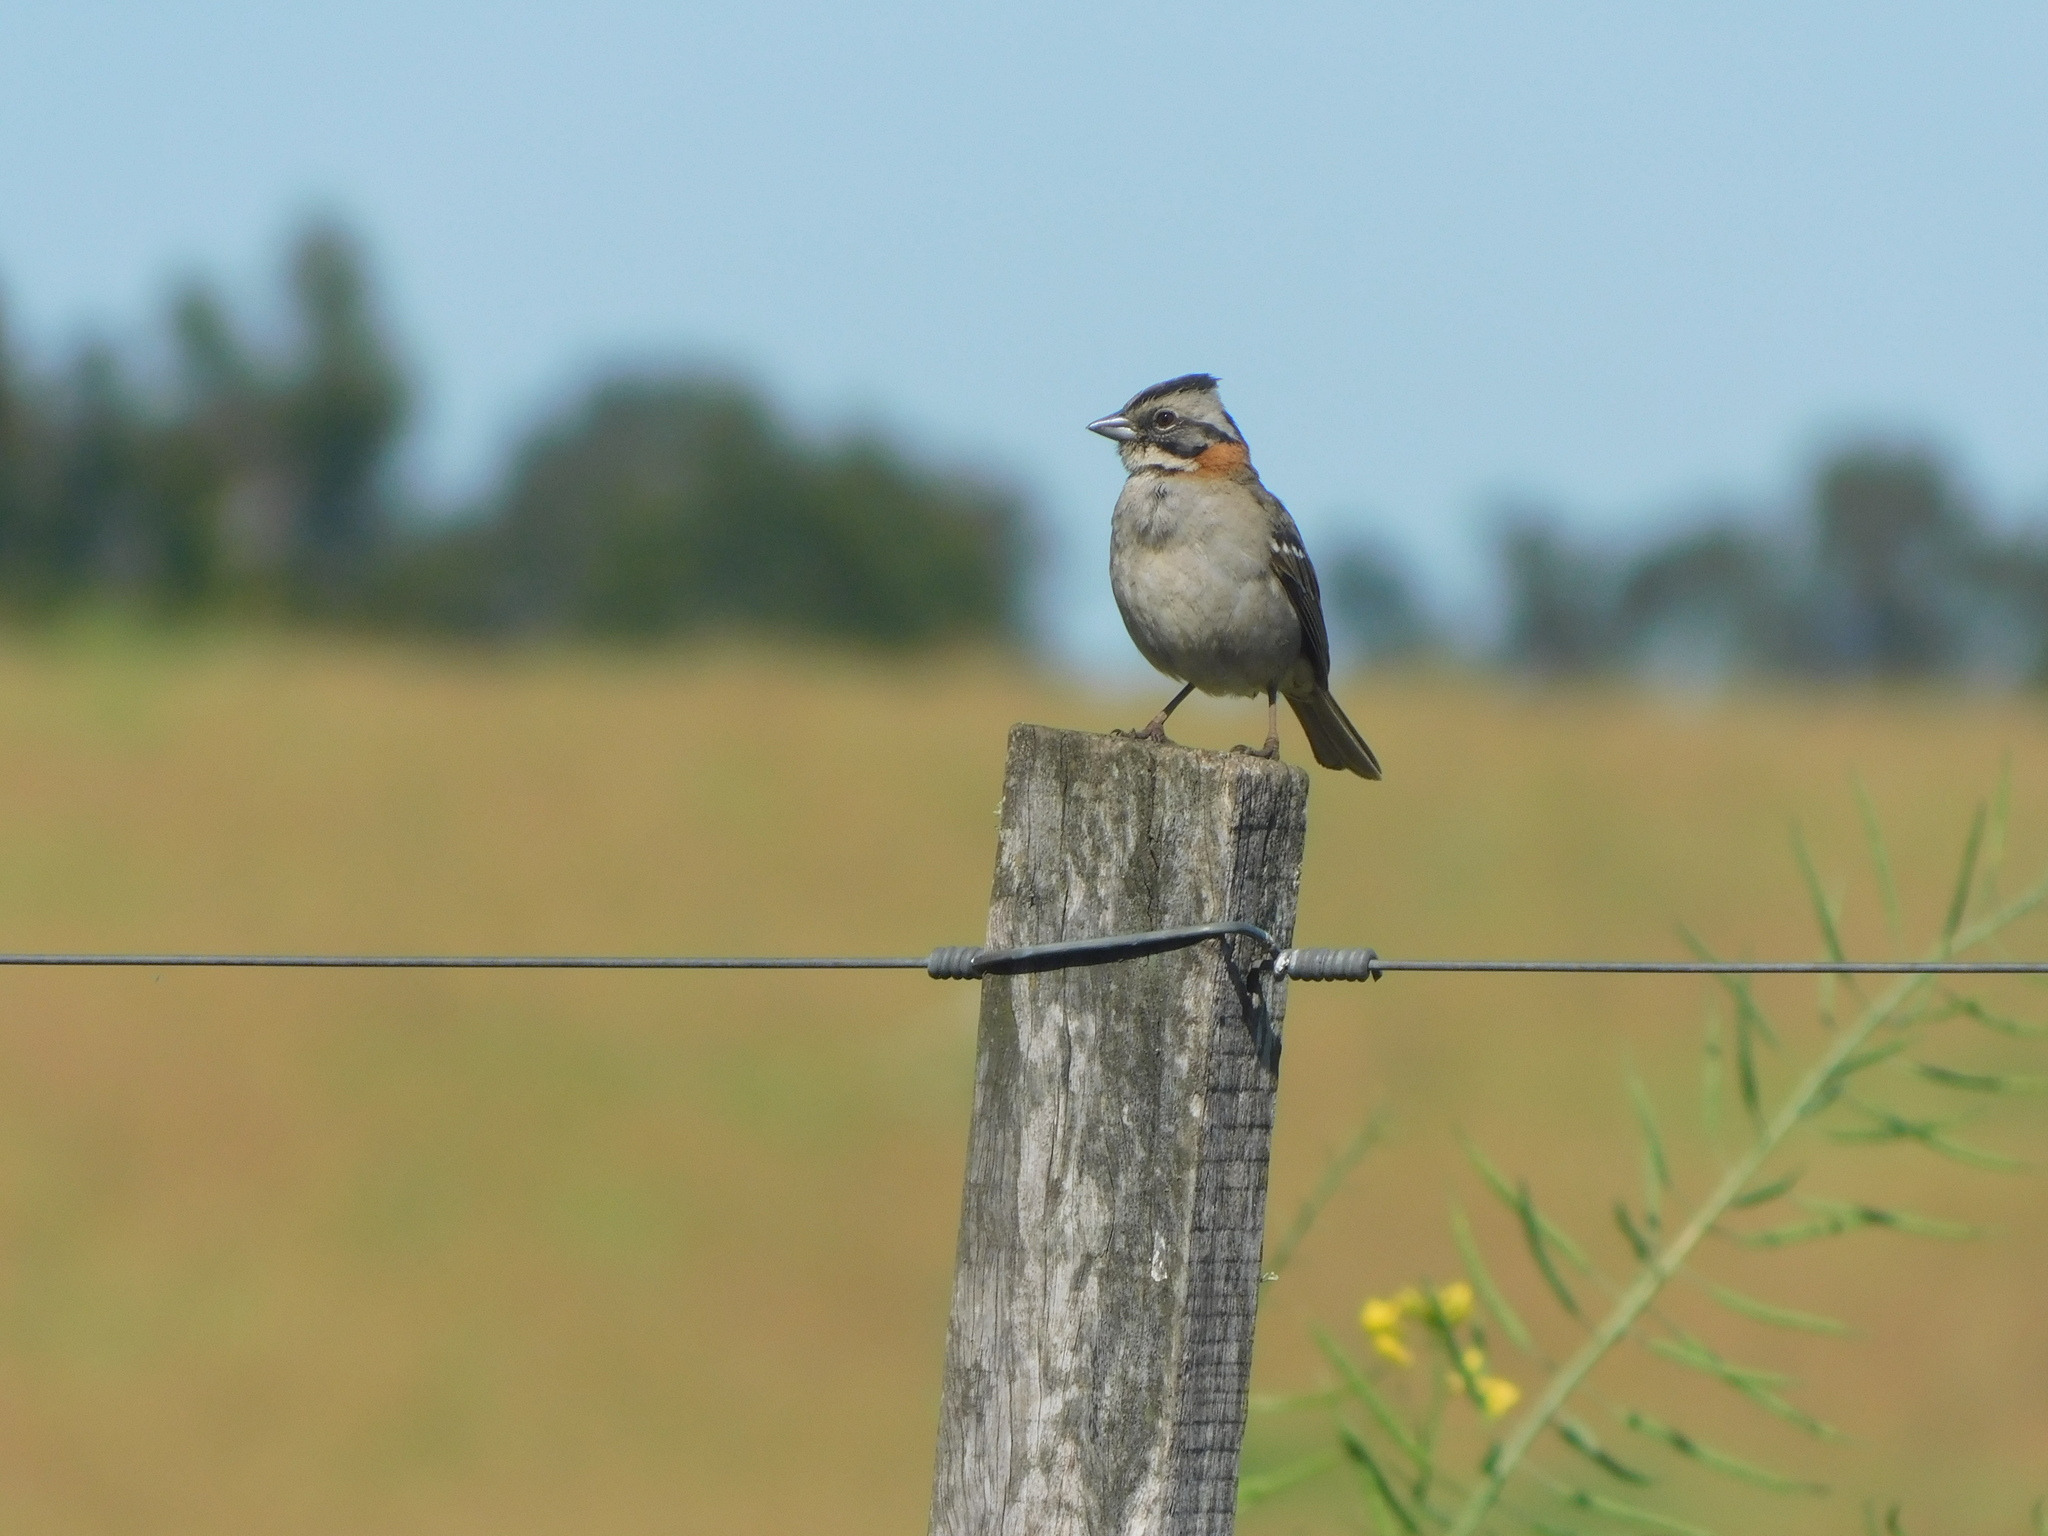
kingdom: Animalia
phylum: Chordata
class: Aves
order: Passeriformes
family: Passerellidae
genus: Zonotrichia
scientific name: Zonotrichia capensis
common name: Rufous-collared sparrow
